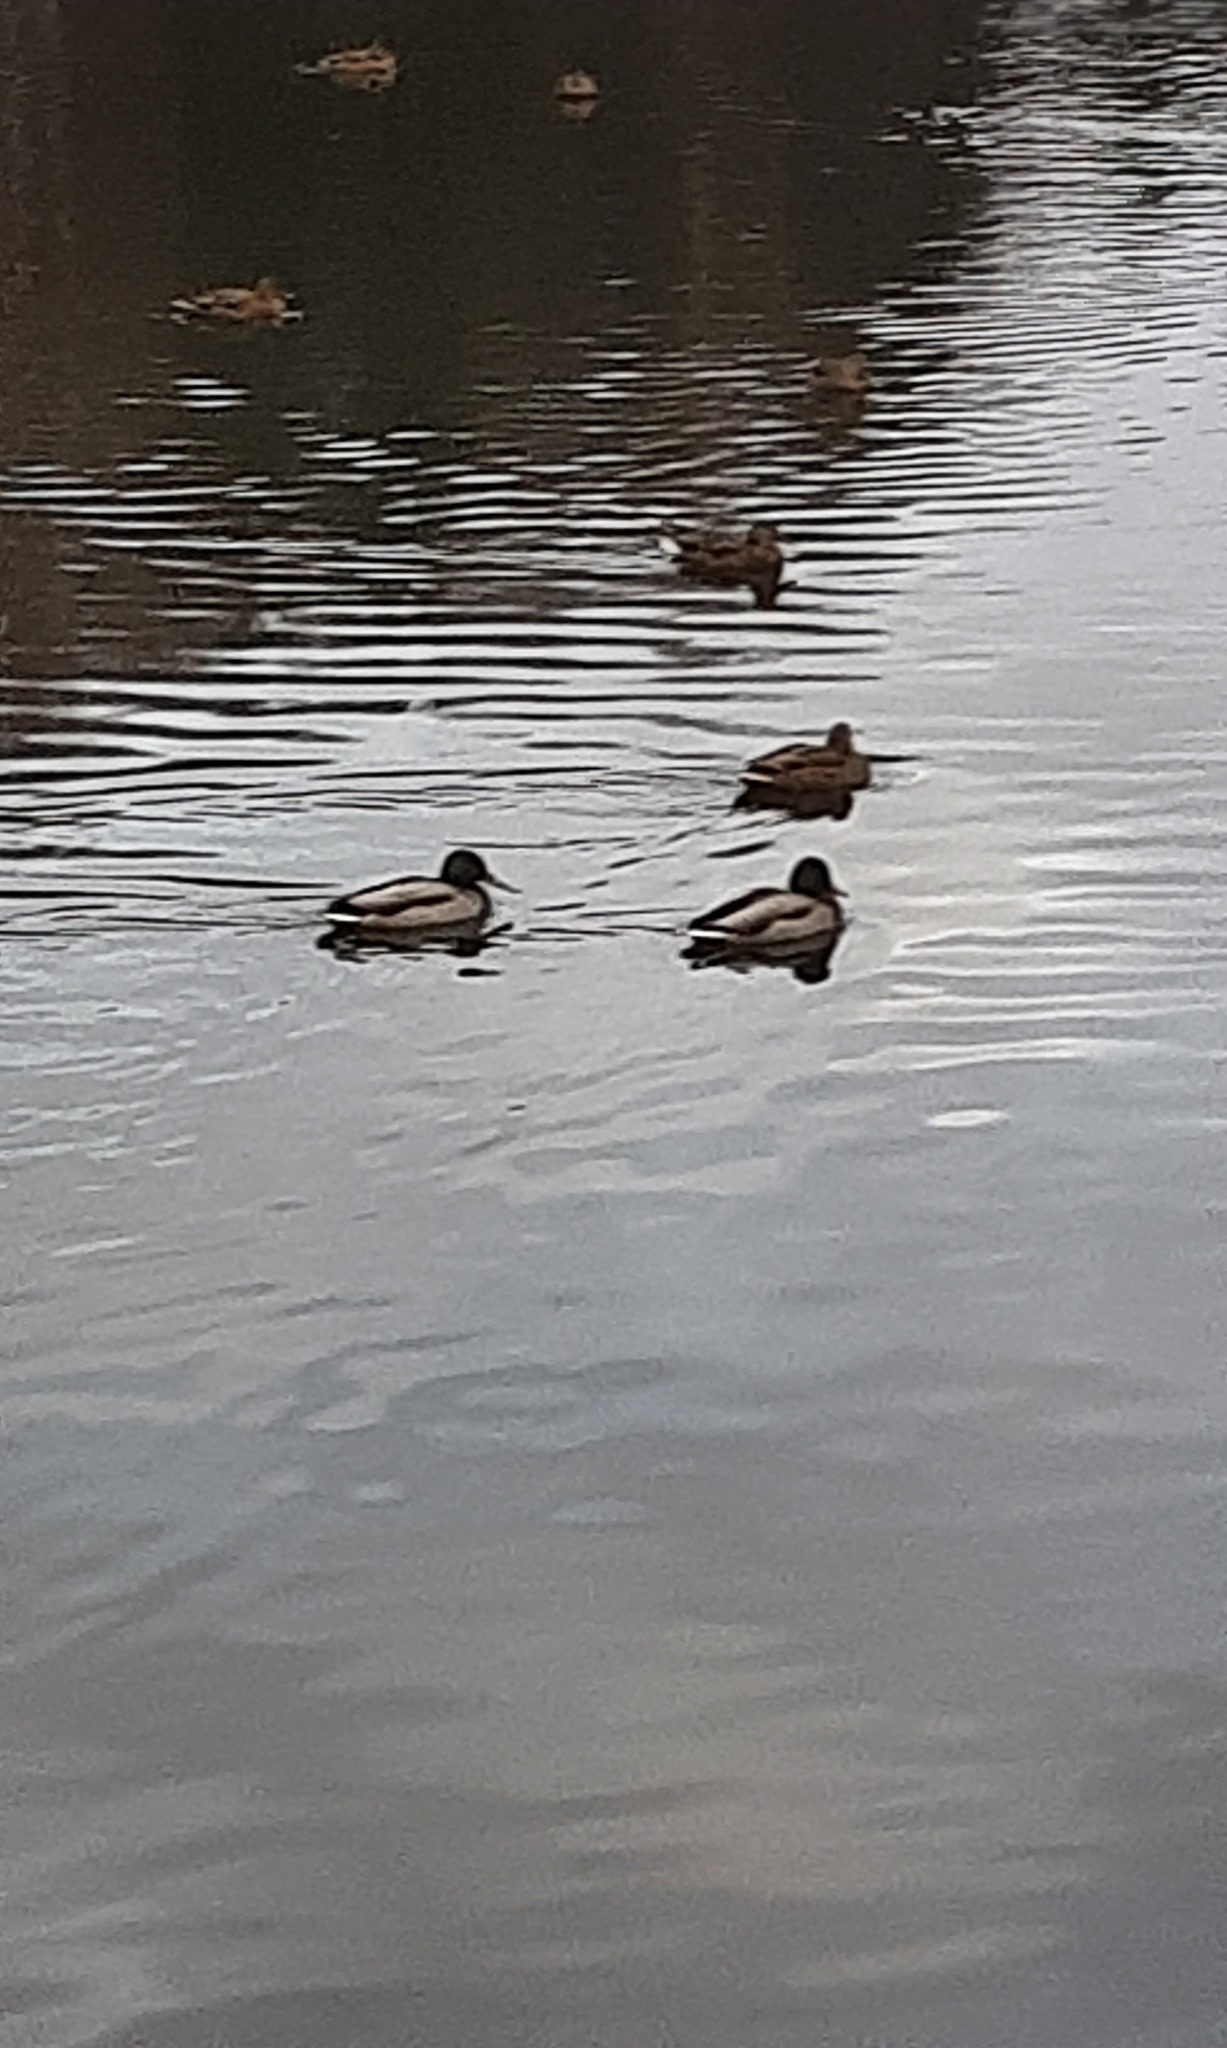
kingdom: Animalia
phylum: Chordata
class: Aves
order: Anseriformes
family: Anatidae
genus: Anas
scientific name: Anas platyrhynchos
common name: Mallard
